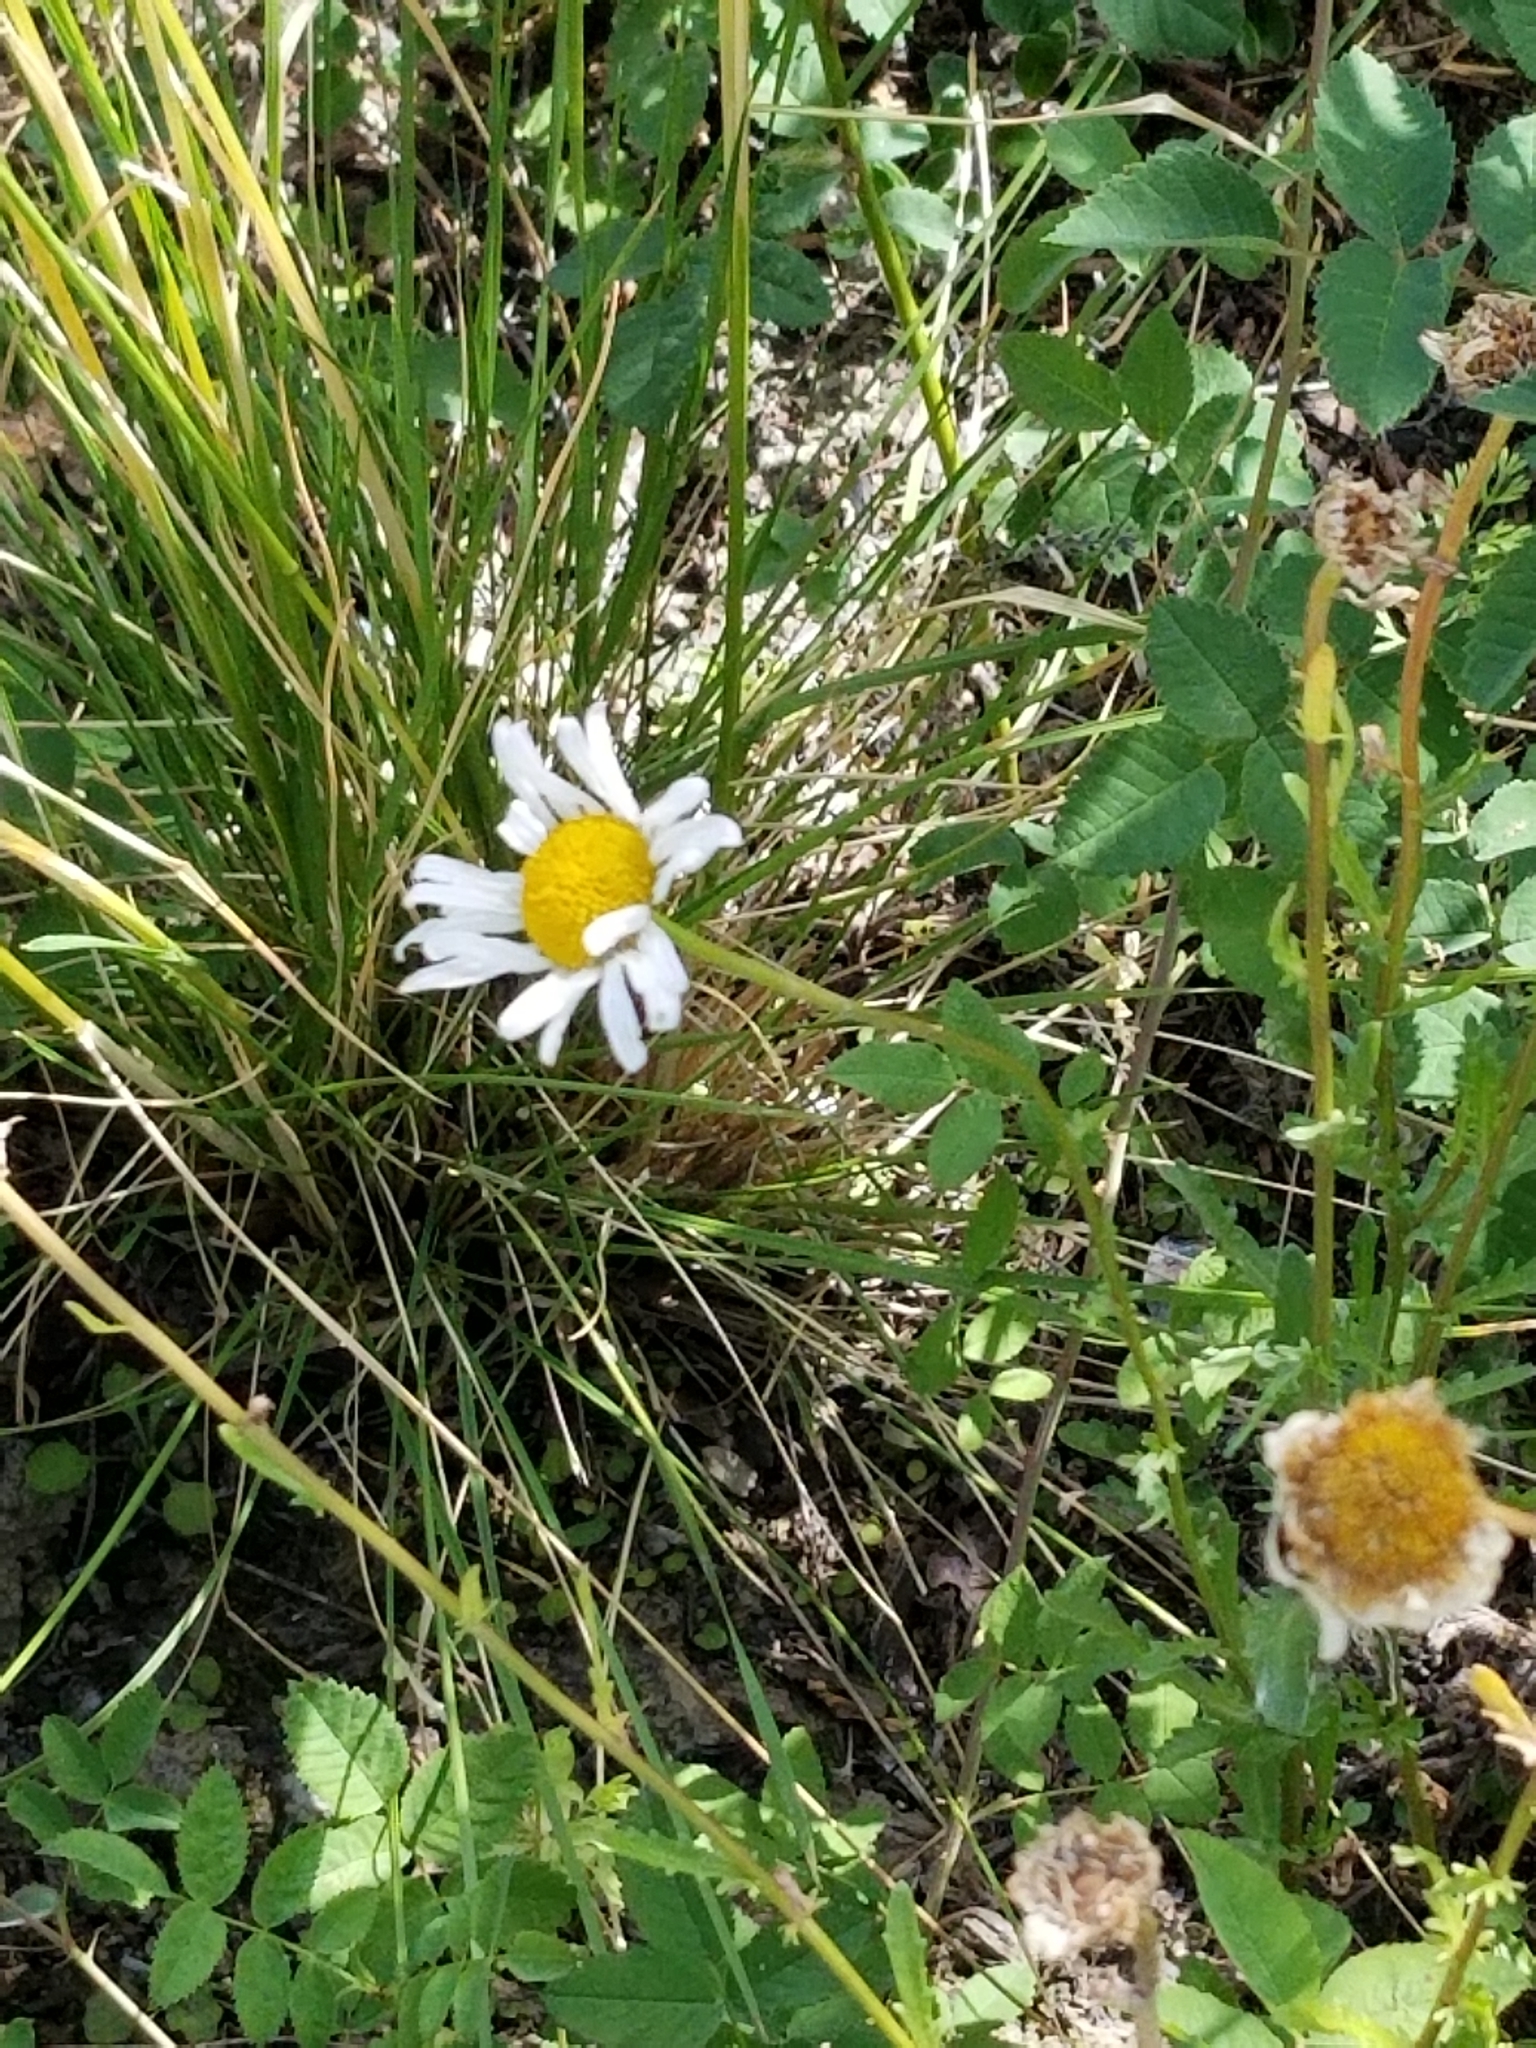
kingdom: Plantae
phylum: Tracheophyta
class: Magnoliopsida
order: Asterales
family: Asteraceae
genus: Leucanthemum
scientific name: Leucanthemum vulgare
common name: Oxeye daisy
